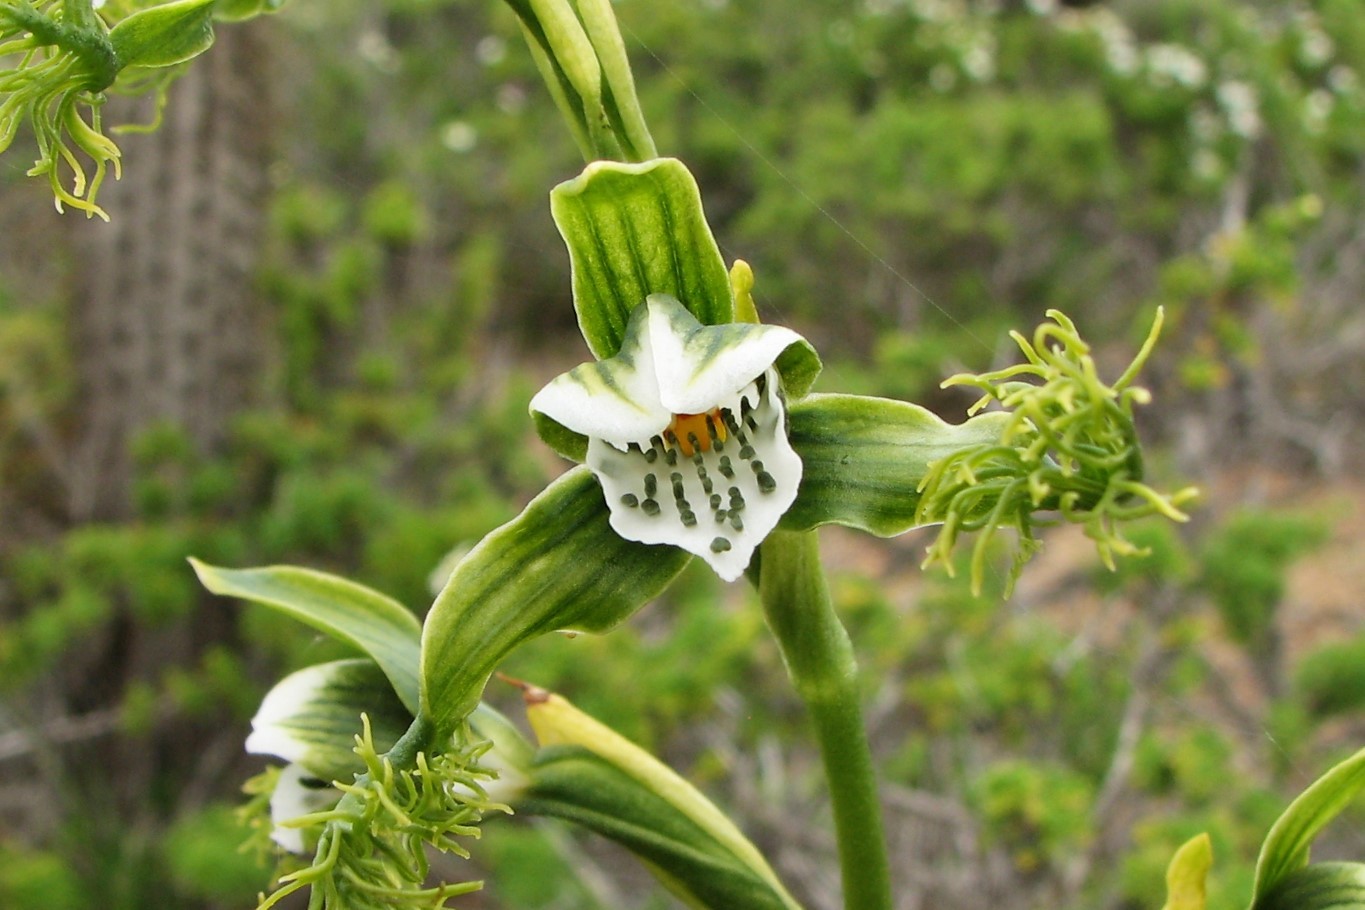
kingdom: Plantae
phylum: Tracheophyta
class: Liliopsida
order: Asparagales
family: Orchidaceae
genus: Bipinnula
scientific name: Bipinnula fimbriata
